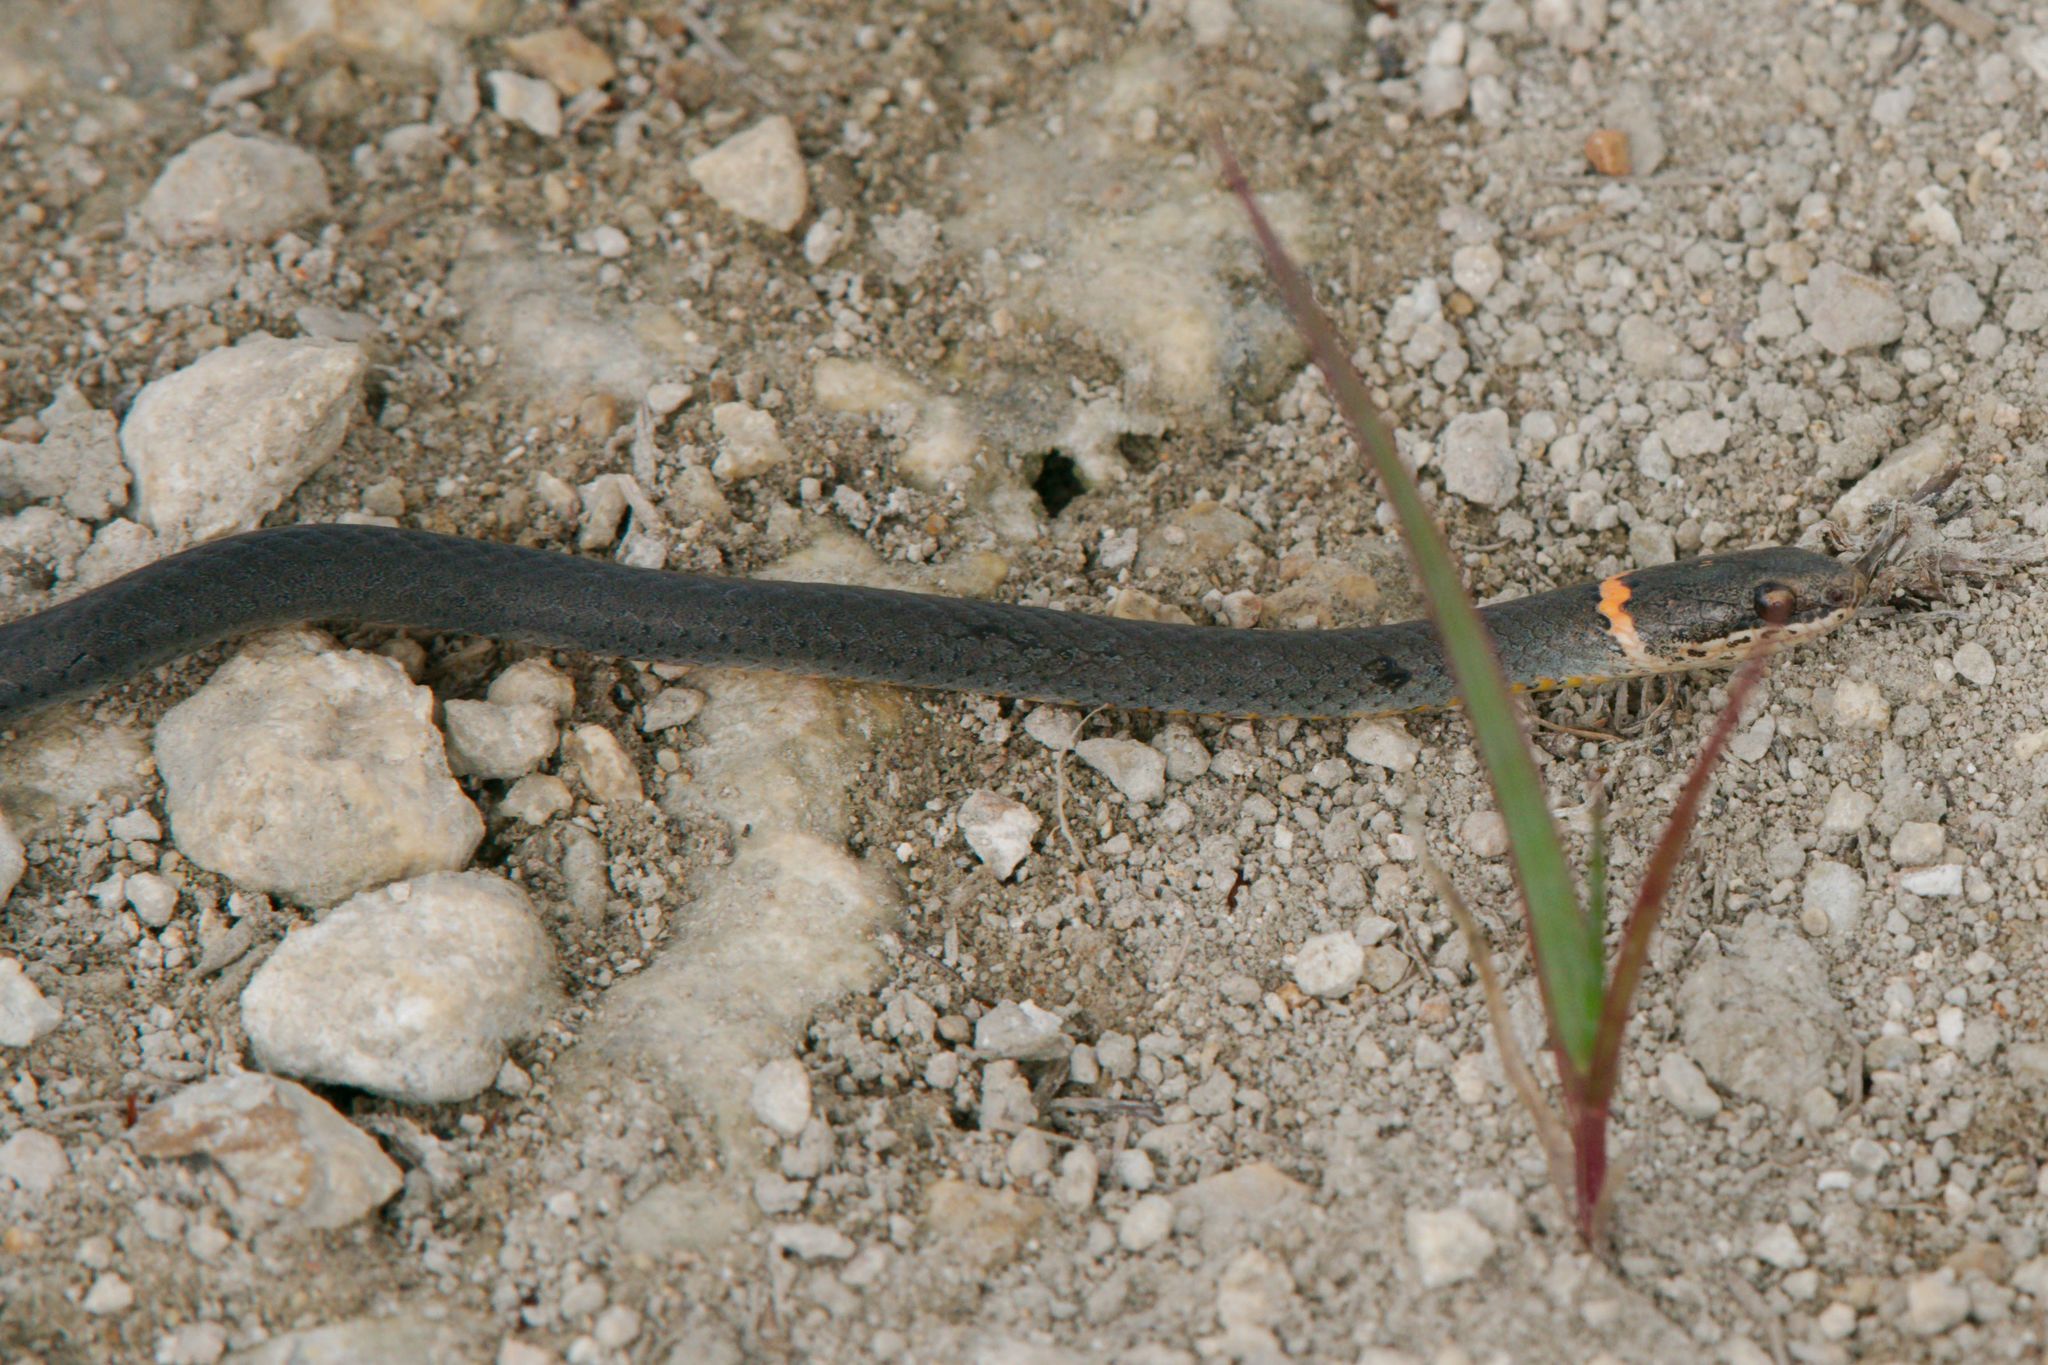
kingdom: Animalia
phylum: Chordata
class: Squamata
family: Colubridae
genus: Diadophis
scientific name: Diadophis punctatus
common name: Ringneck snake
